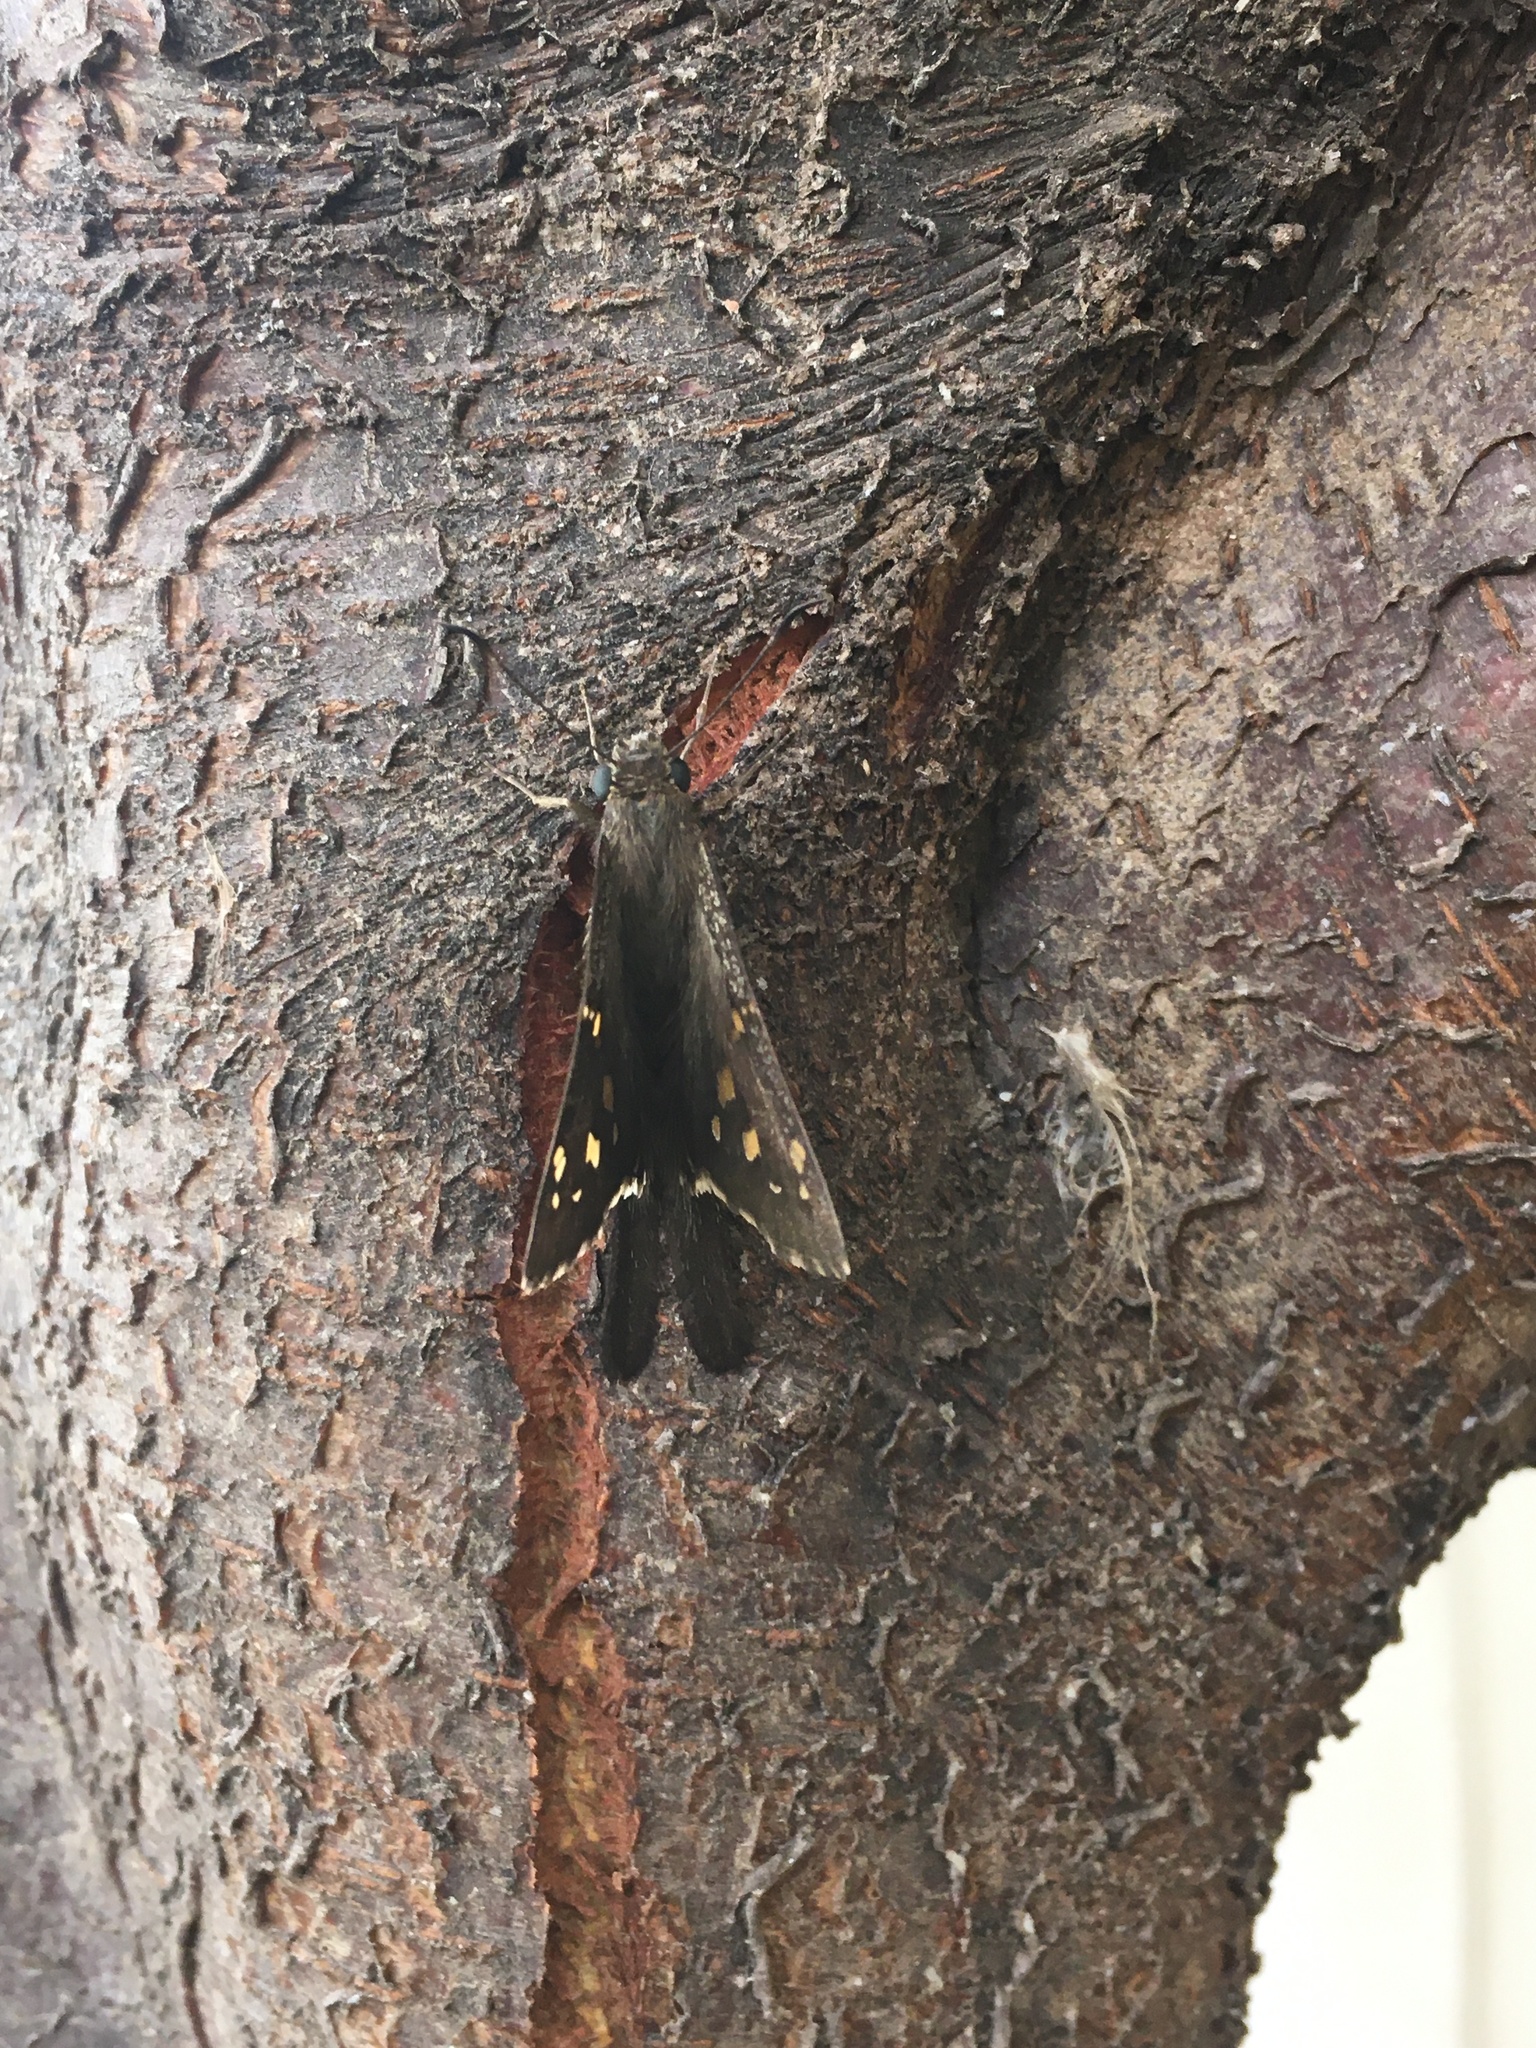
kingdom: Animalia
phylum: Arthropoda
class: Insecta
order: Lepidoptera
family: Hesperiidae
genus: Thorybes
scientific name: Thorybes
